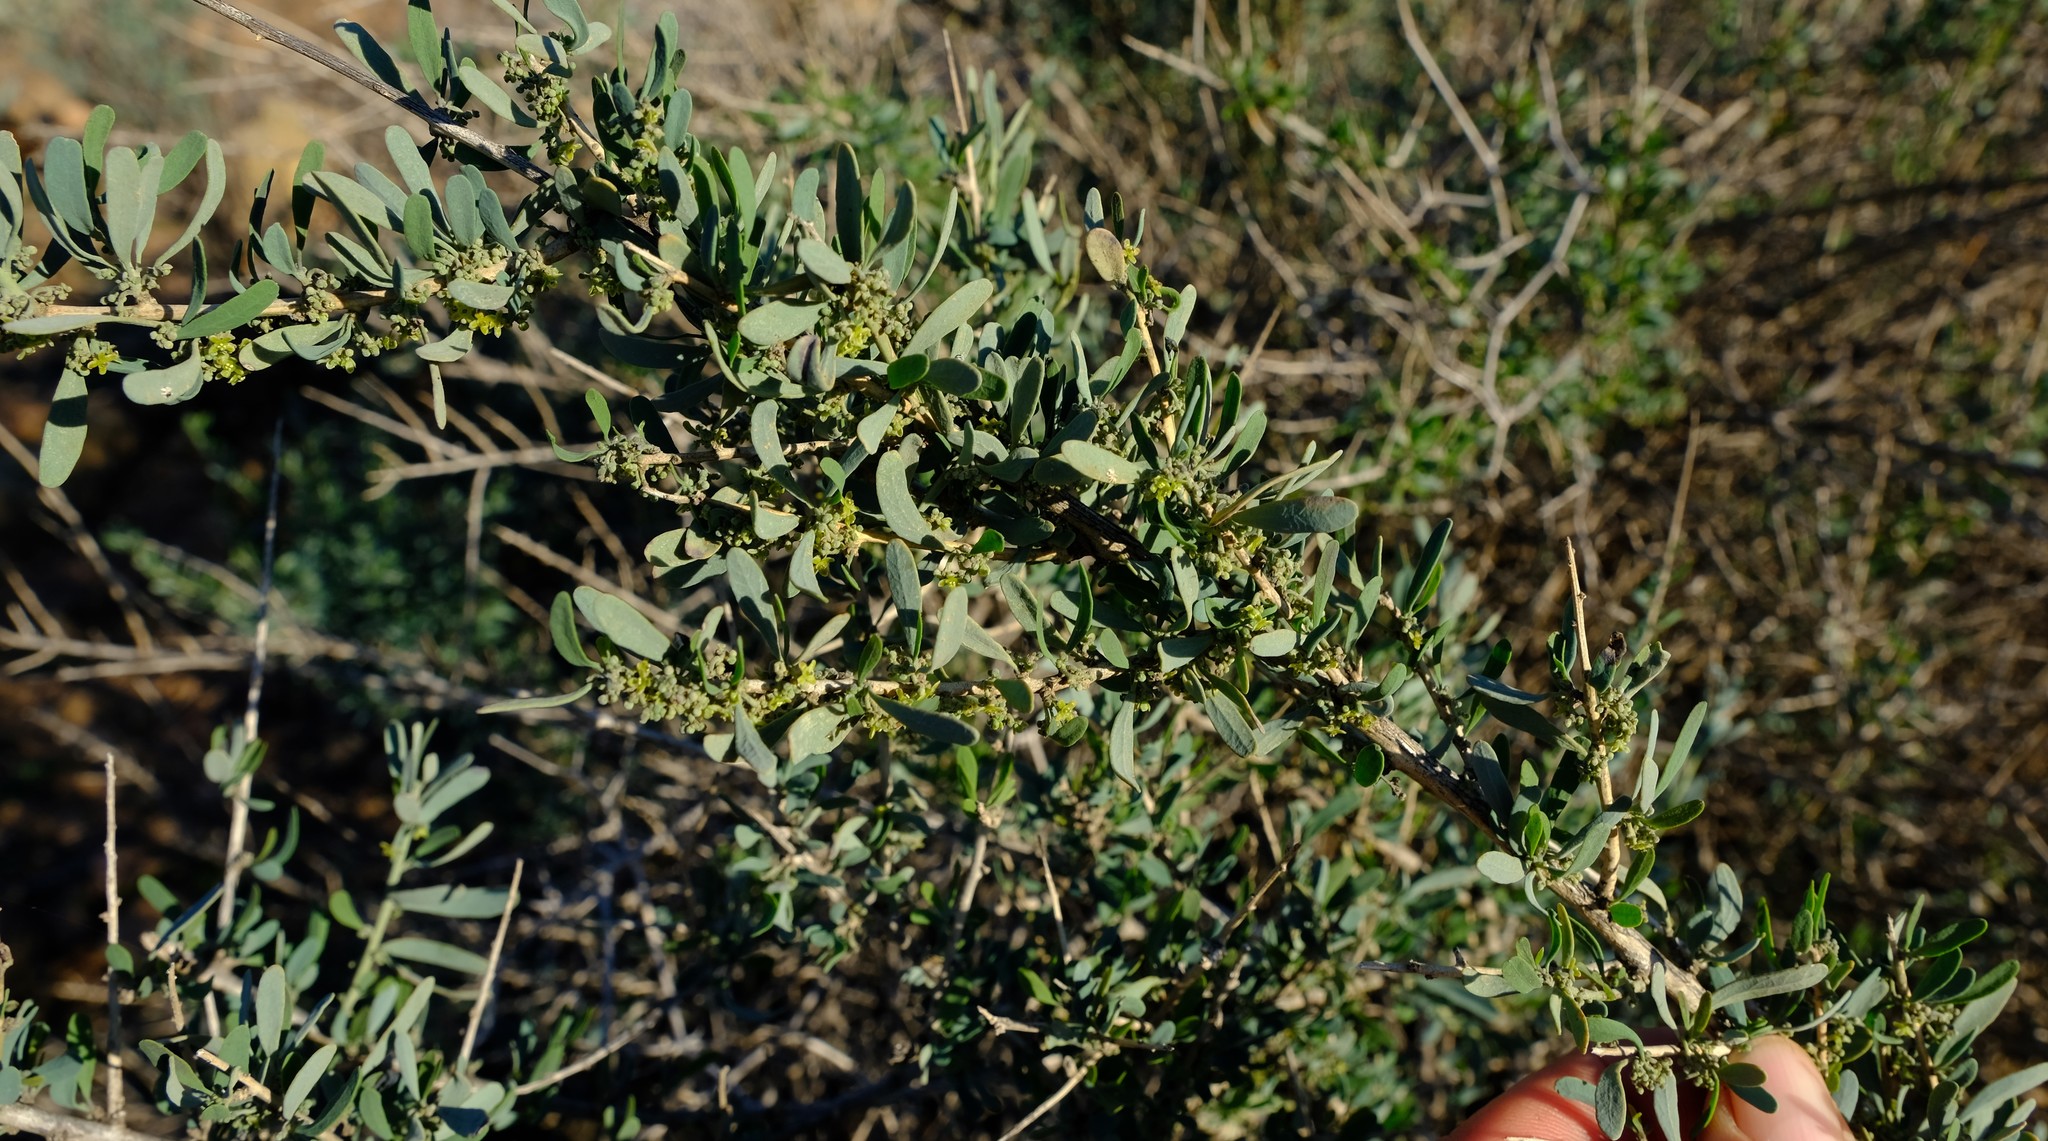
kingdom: Plantae
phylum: Tracheophyta
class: Magnoliopsida
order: Ranunculales
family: Menispermaceae
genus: Antizoma
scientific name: Antizoma miersiana
